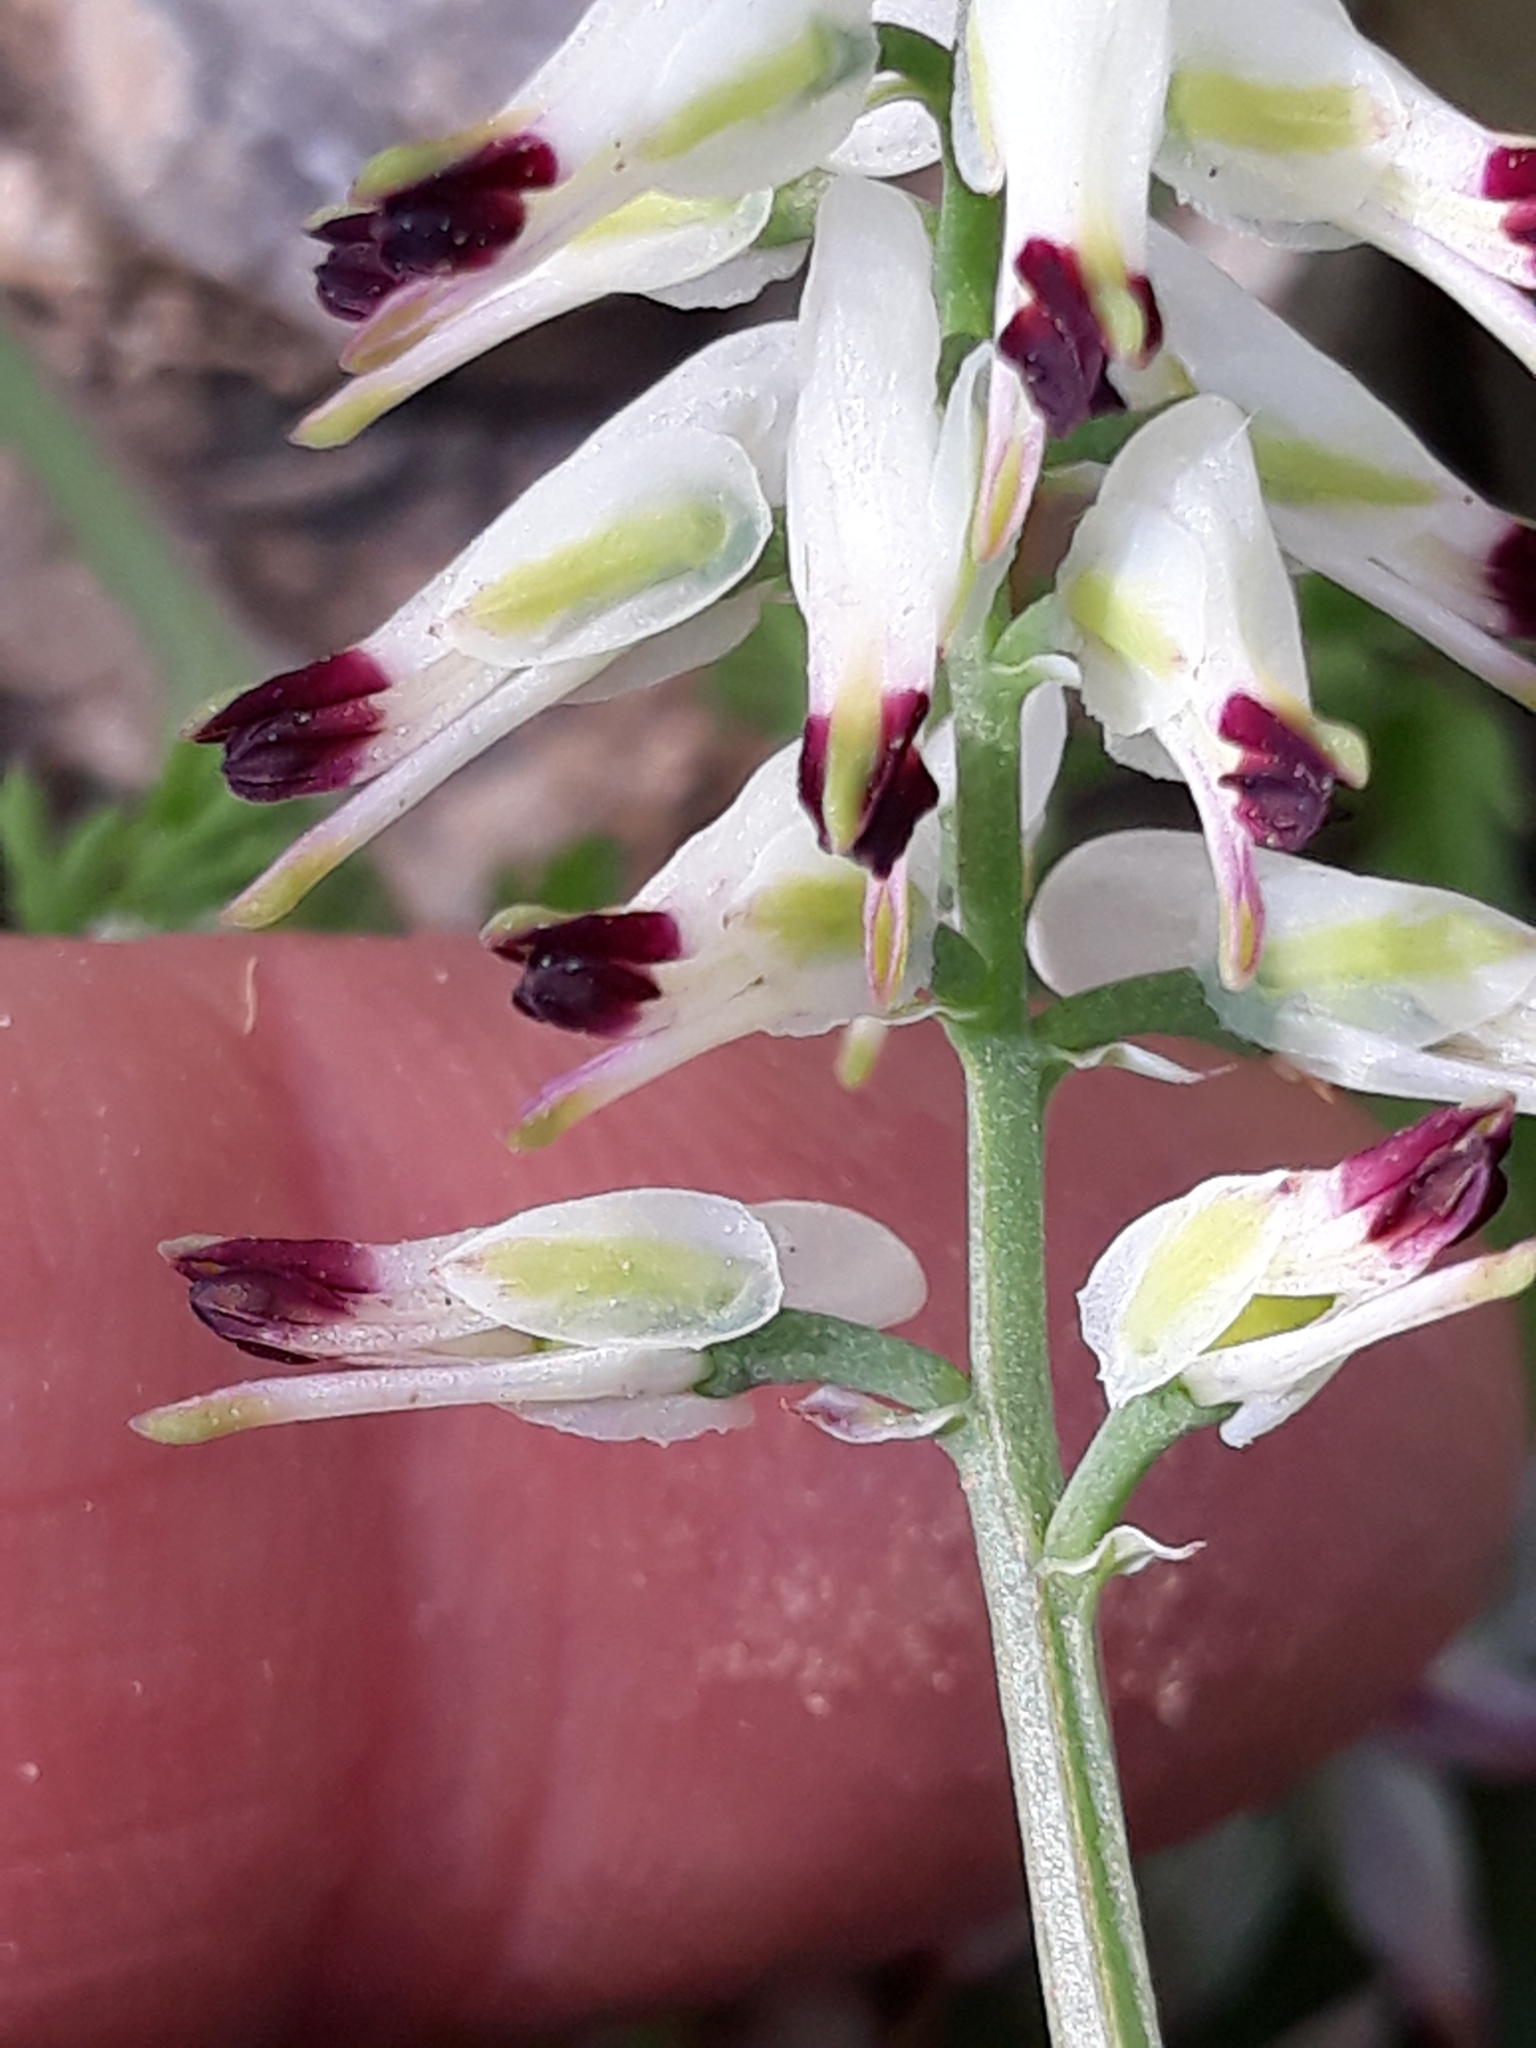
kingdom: Plantae
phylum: Tracheophyta
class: Magnoliopsida
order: Ranunculales
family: Papaveraceae
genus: Fumaria
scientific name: Fumaria capreolata
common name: White ramping-fumitory
